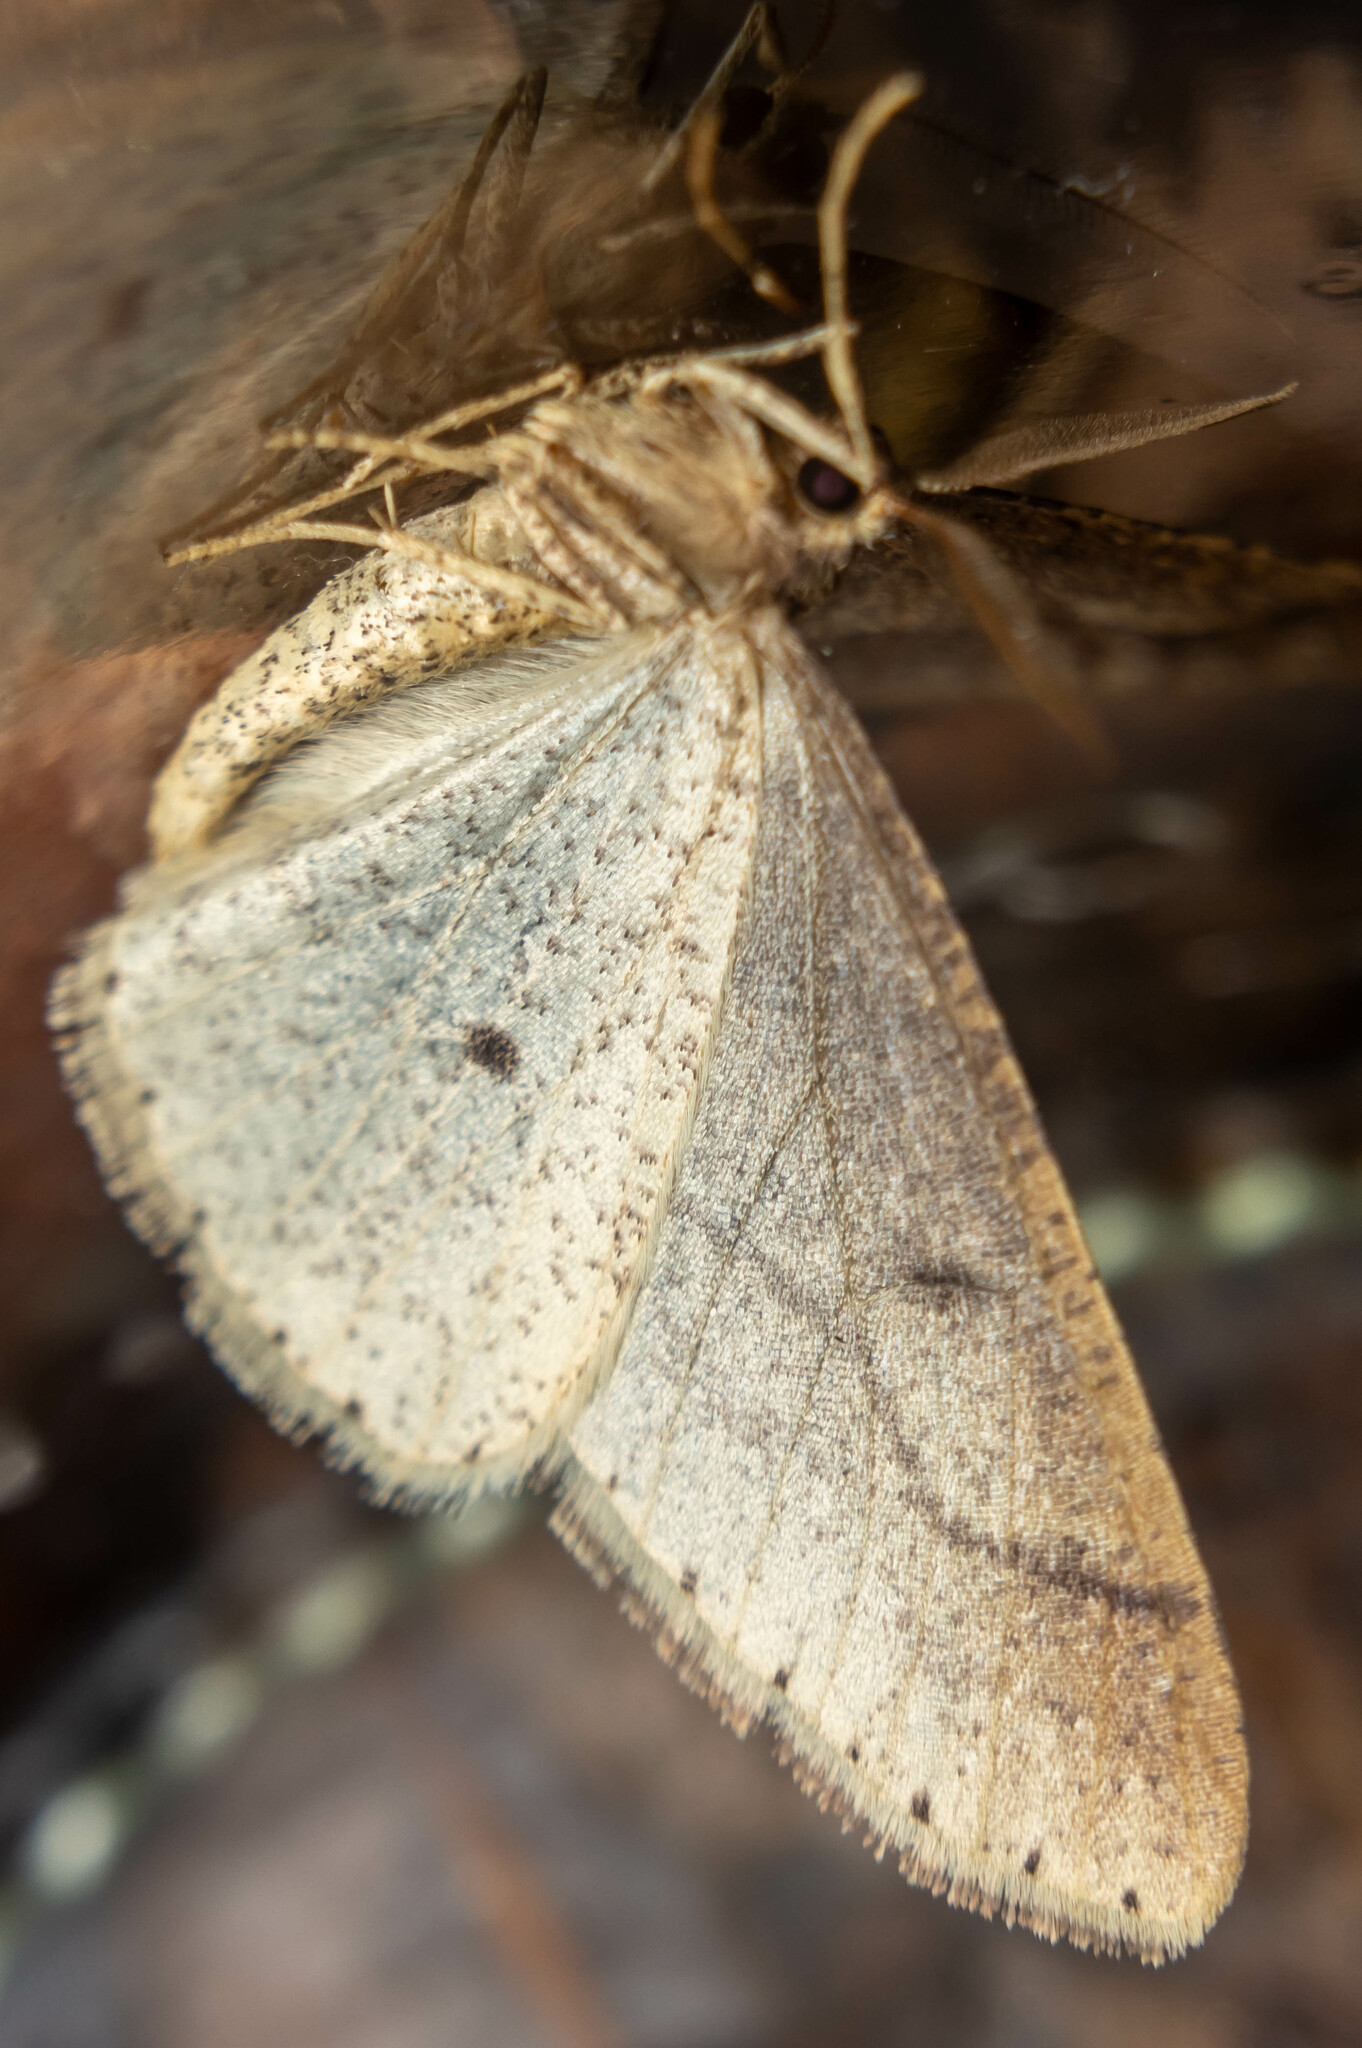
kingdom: Animalia
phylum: Arthropoda
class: Insecta
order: Lepidoptera
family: Geometridae
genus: Agriopis
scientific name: Agriopis marginaria
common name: Dotted border
